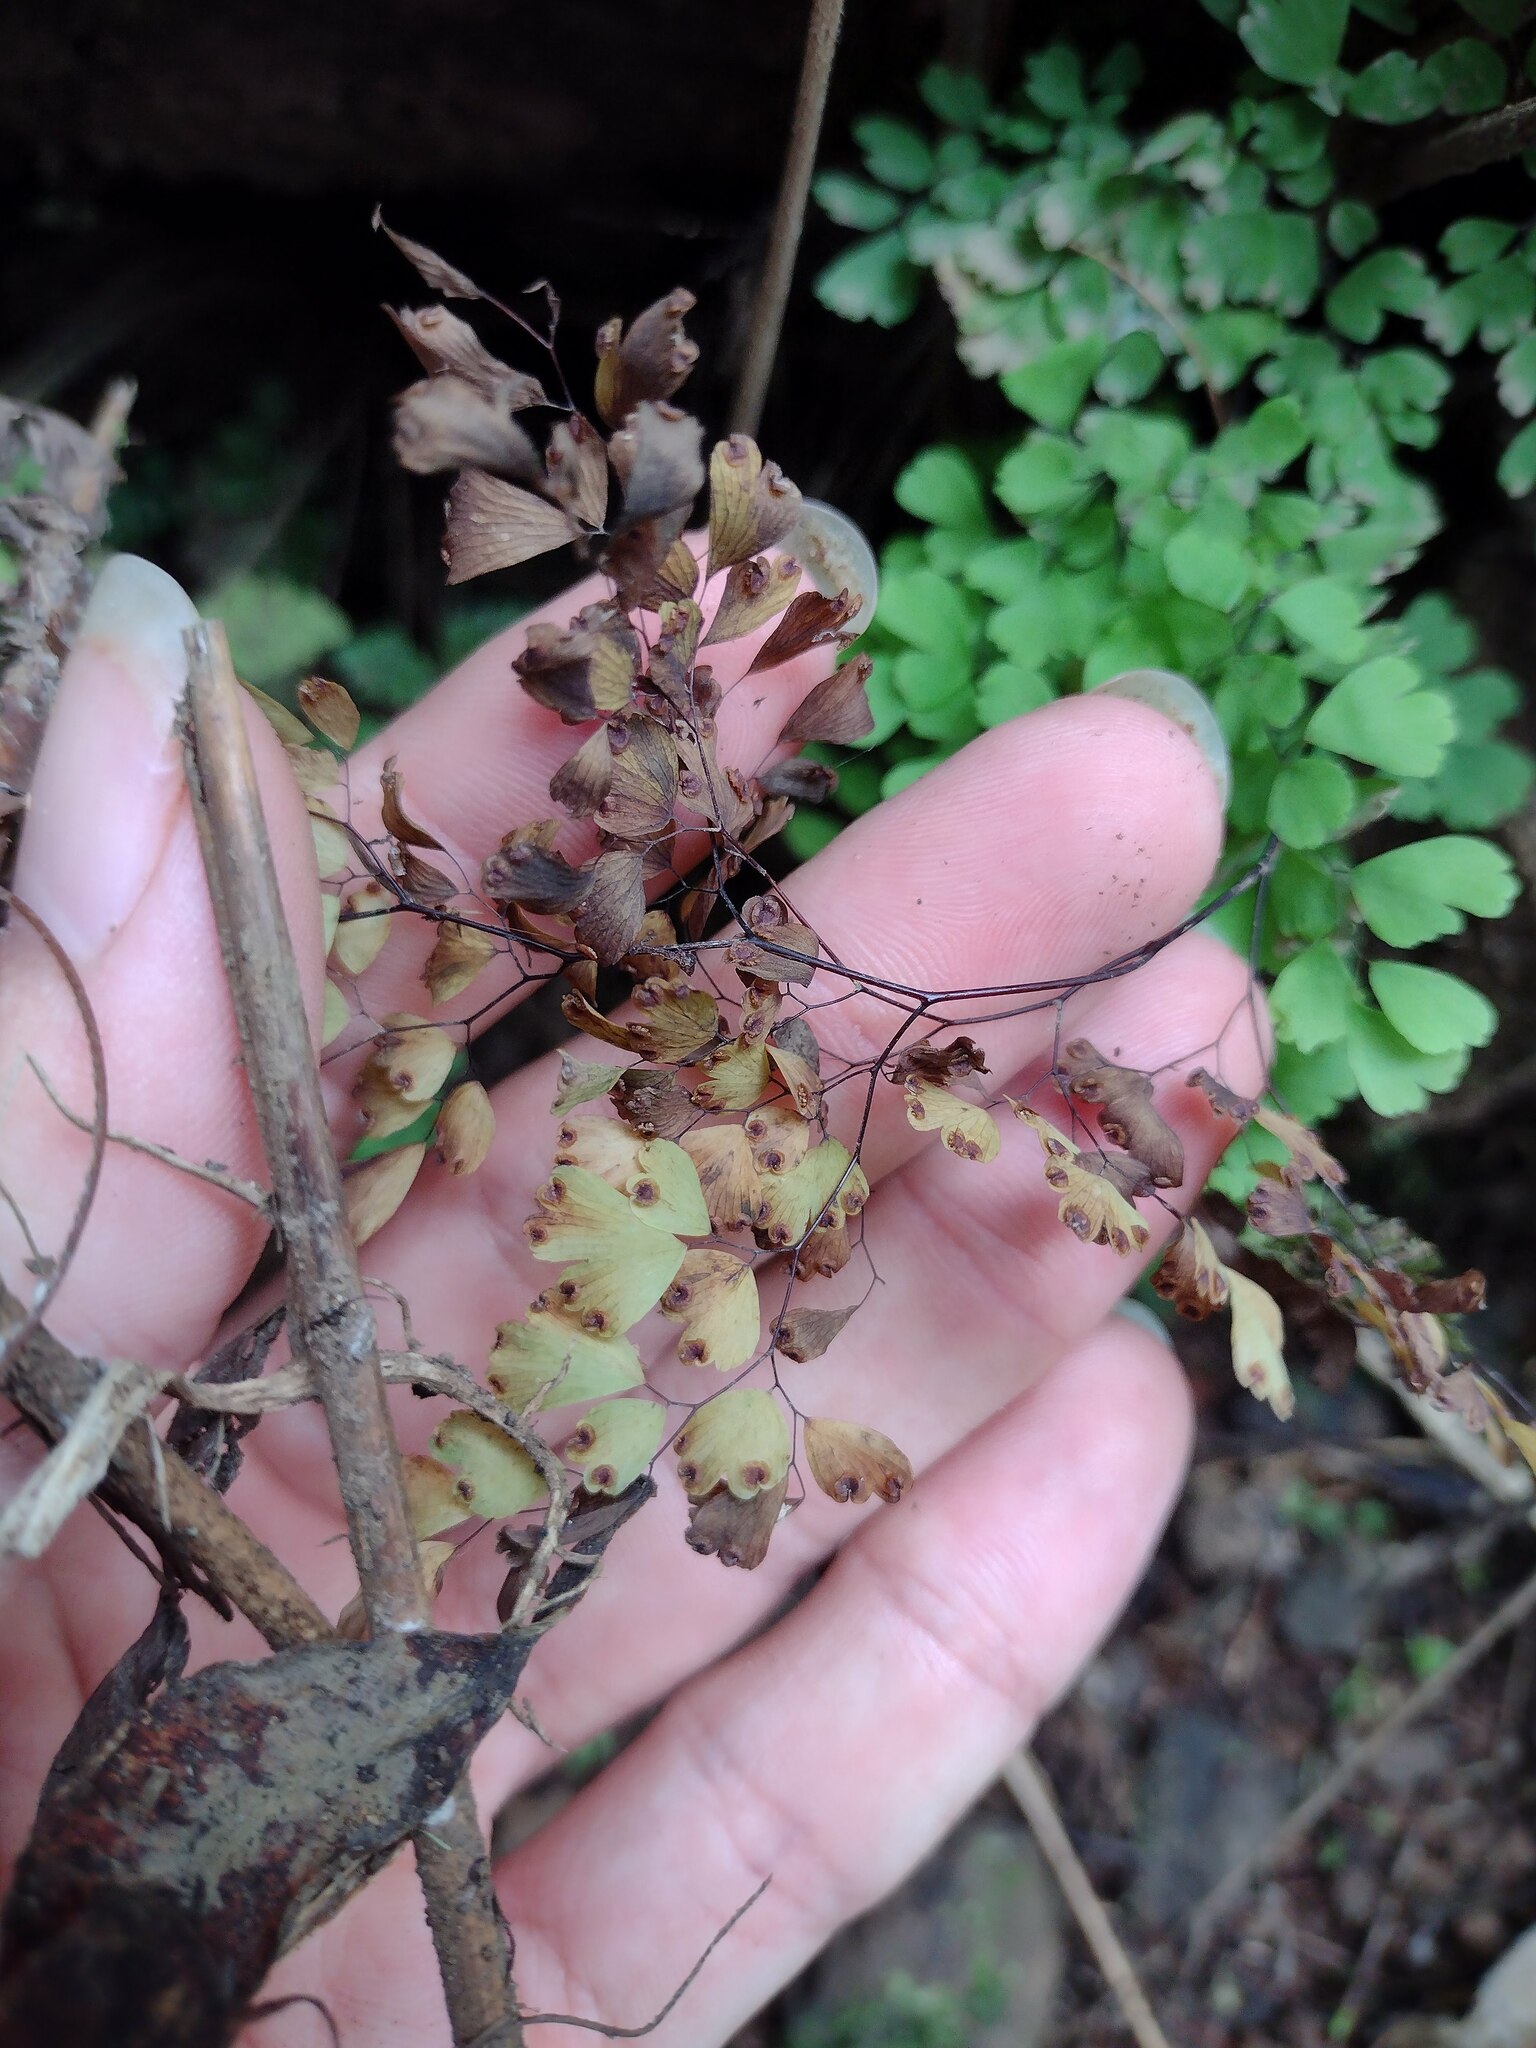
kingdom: Plantae
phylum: Tracheophyta
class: Polypodiopsida
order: Polypodiales
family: Pteridaceae
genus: Adiantum
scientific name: Adiantum raddianum
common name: Delta maidenhair fern
